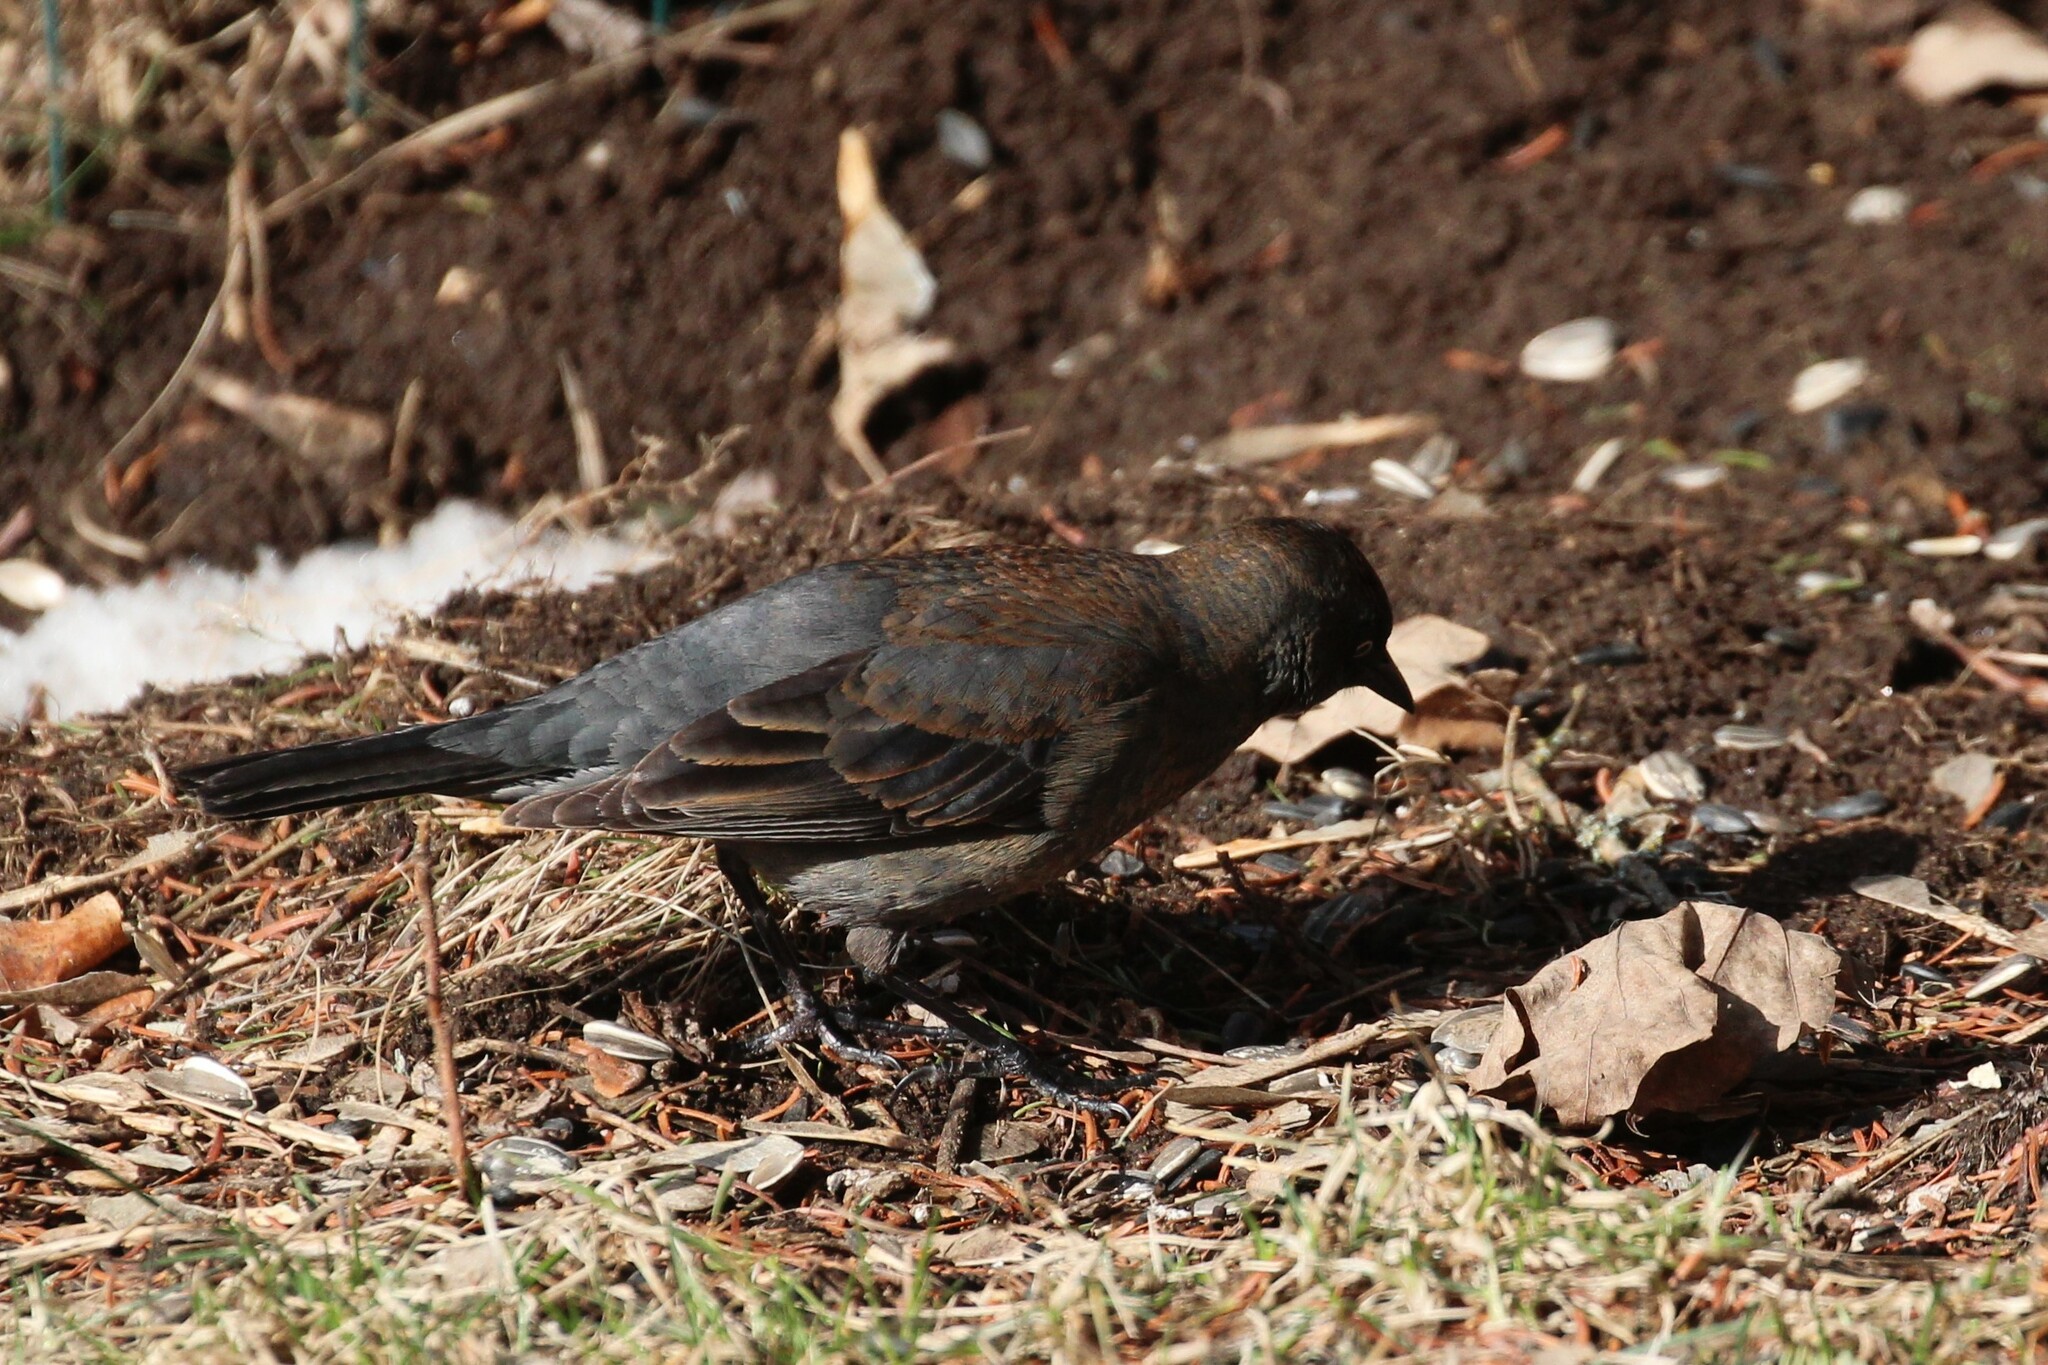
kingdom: Animalia
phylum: Chordata
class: Aves
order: Passeriformes
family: Icteridae
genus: Euphagus
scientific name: Euphagus carolinus
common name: Rusty blackbird
